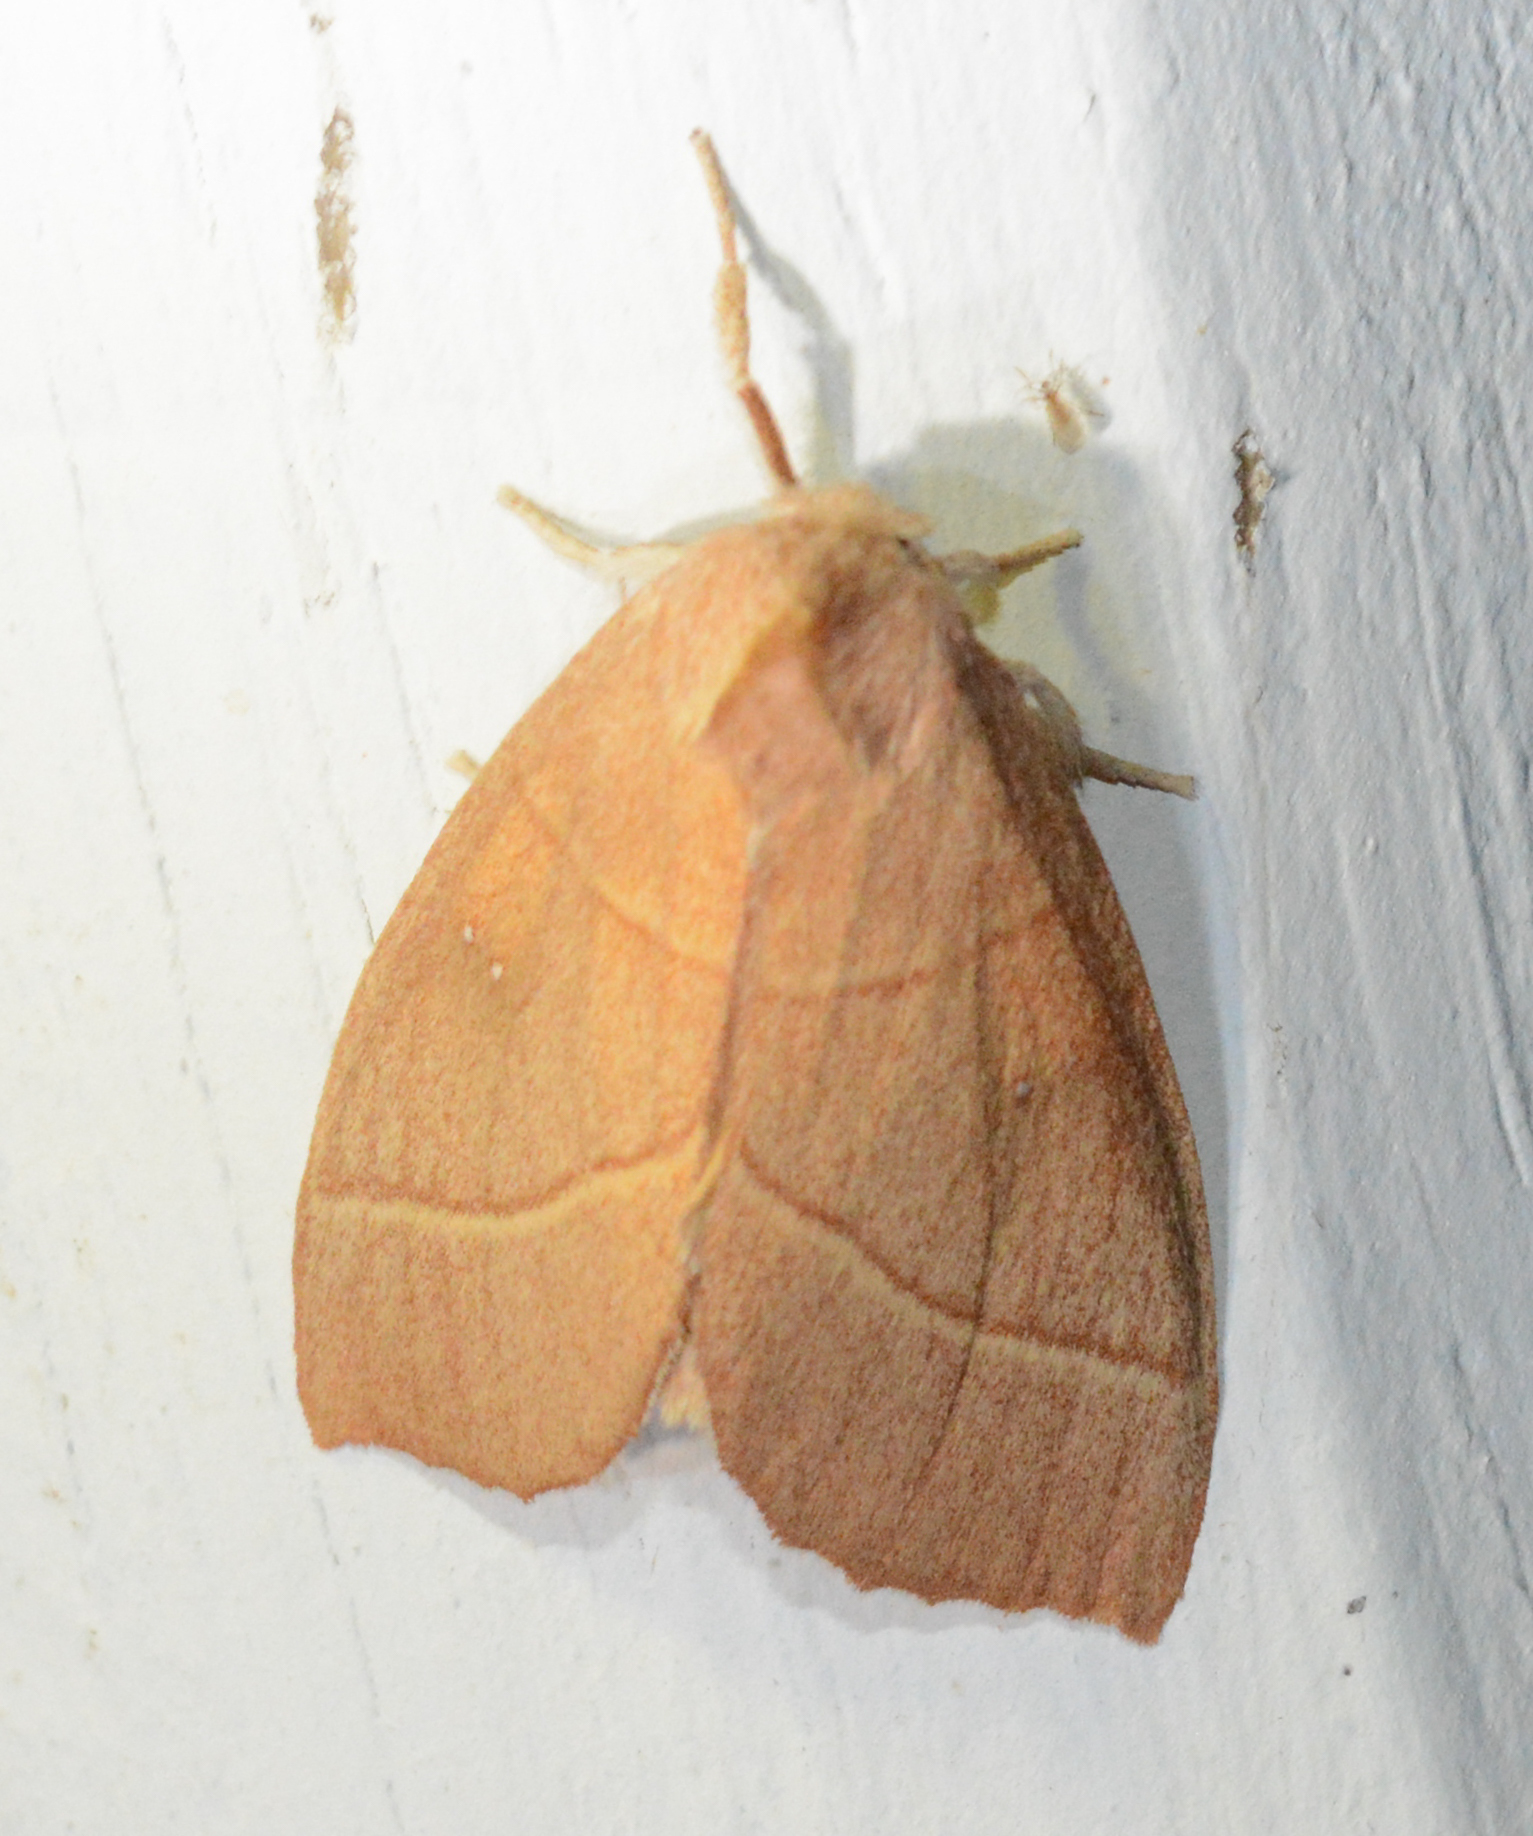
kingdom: Animalia
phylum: Arthropoda
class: Insecta
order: Lepidoptera
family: Notodontidae
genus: Nadata
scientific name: Nadata gibbosa
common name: White-dotted prominent
